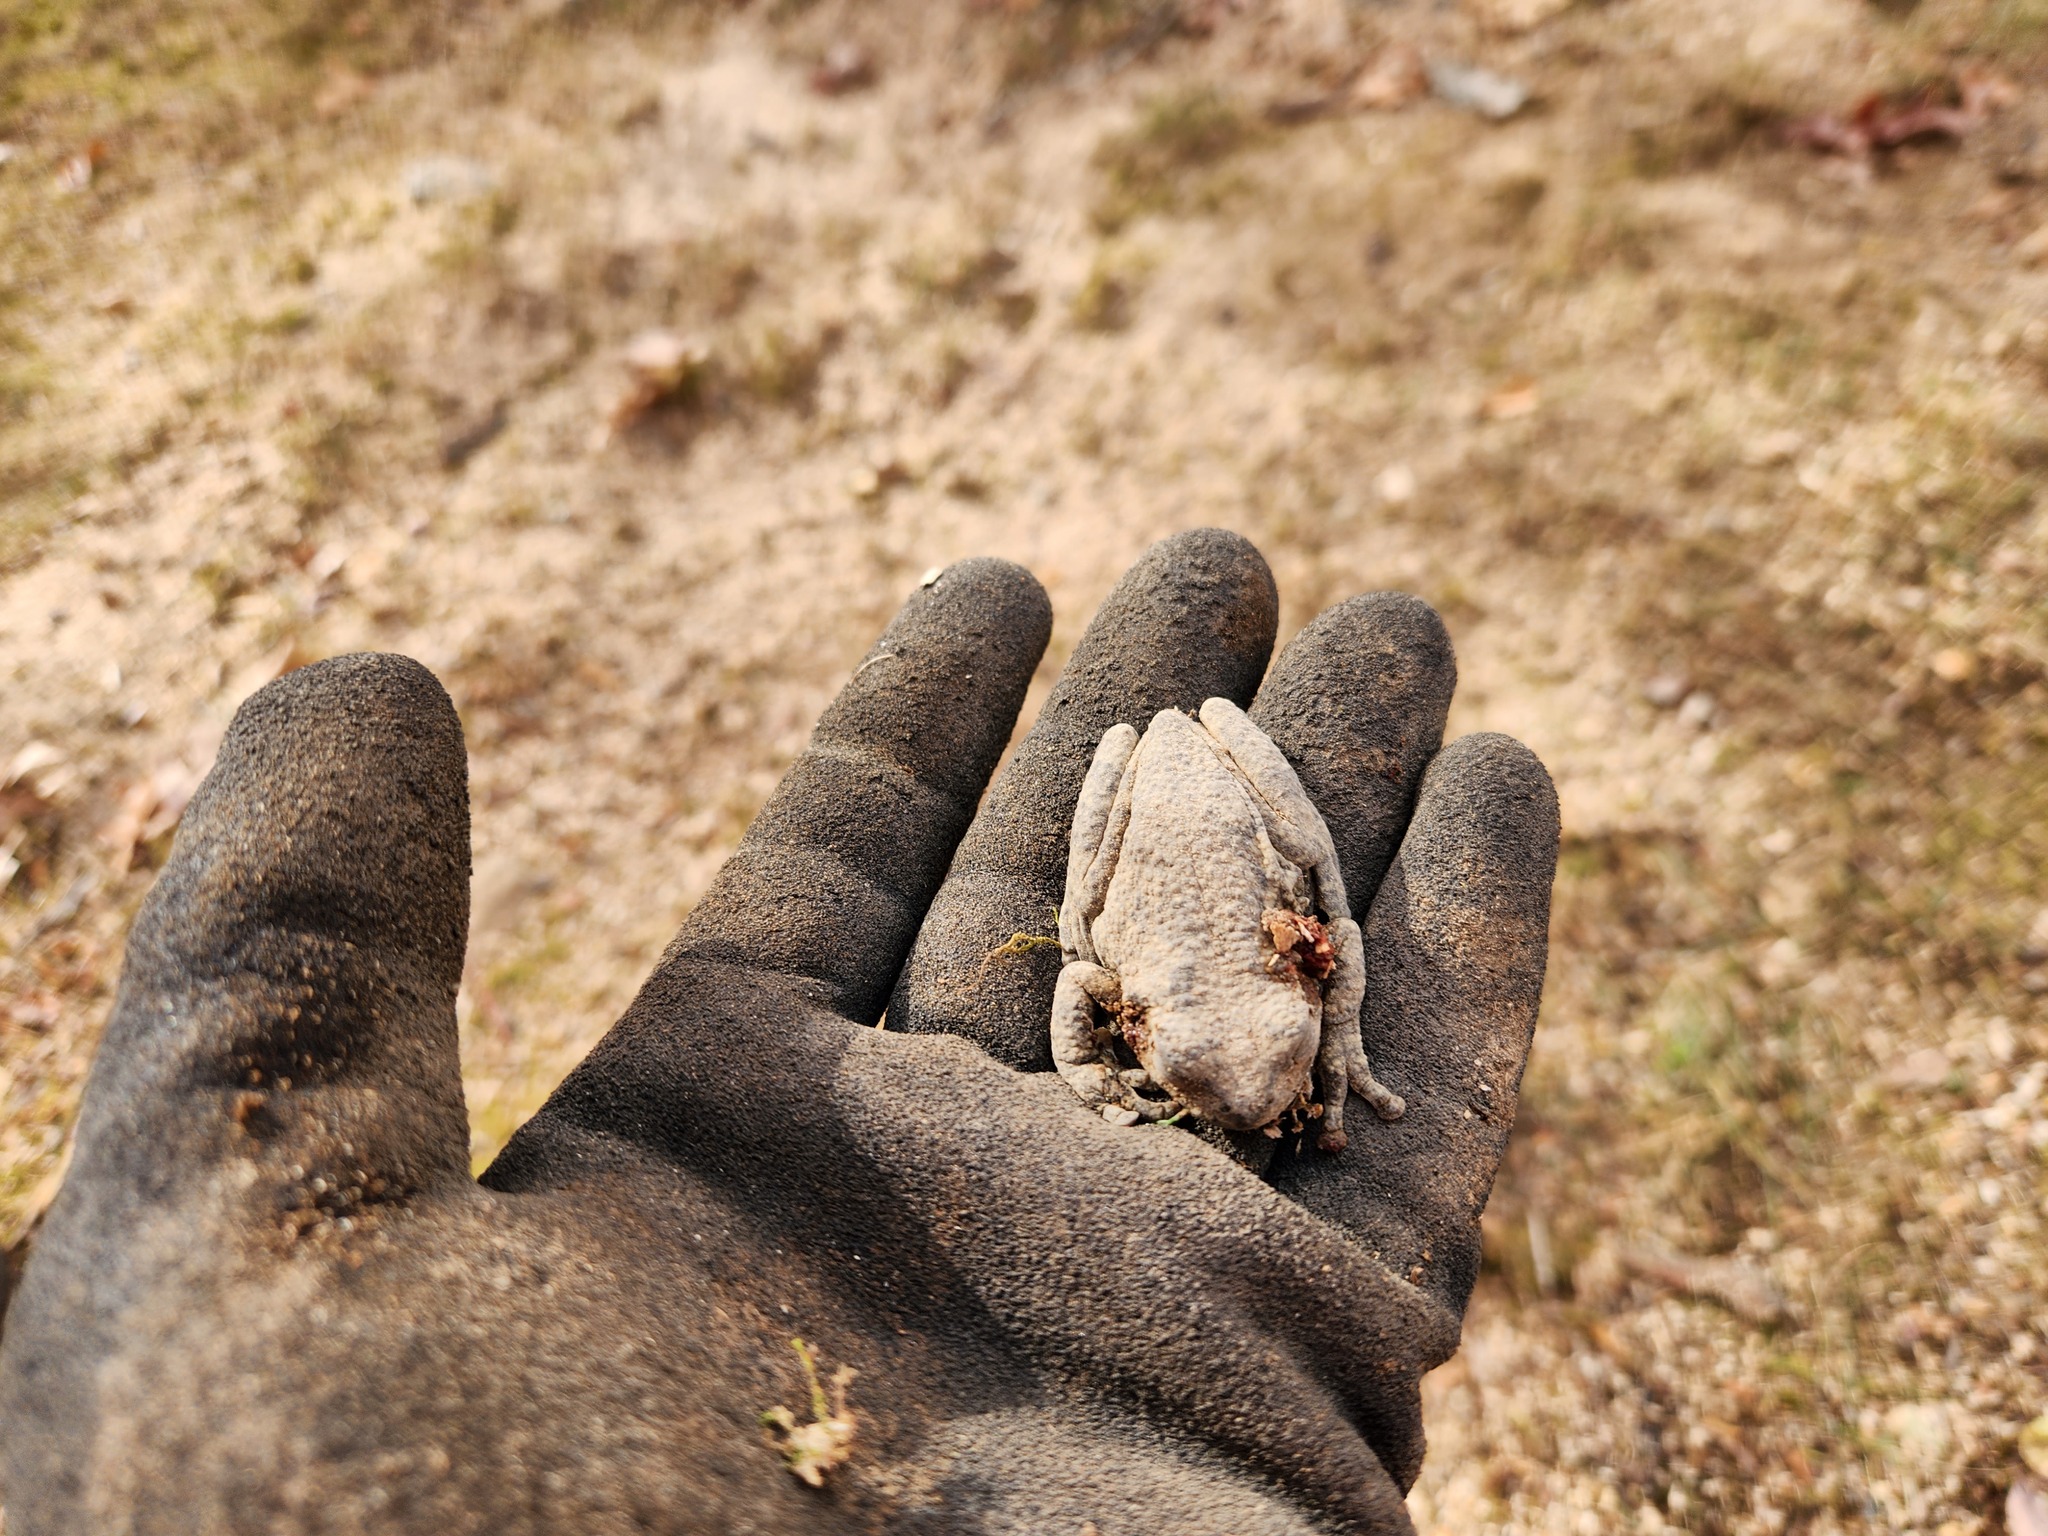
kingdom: Animalia
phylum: Chordata
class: Amphibia
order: Anura
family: Hylidae
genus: Dryophytes
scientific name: Dryophytes chrysoscelis
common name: Cope's gray treefrog
